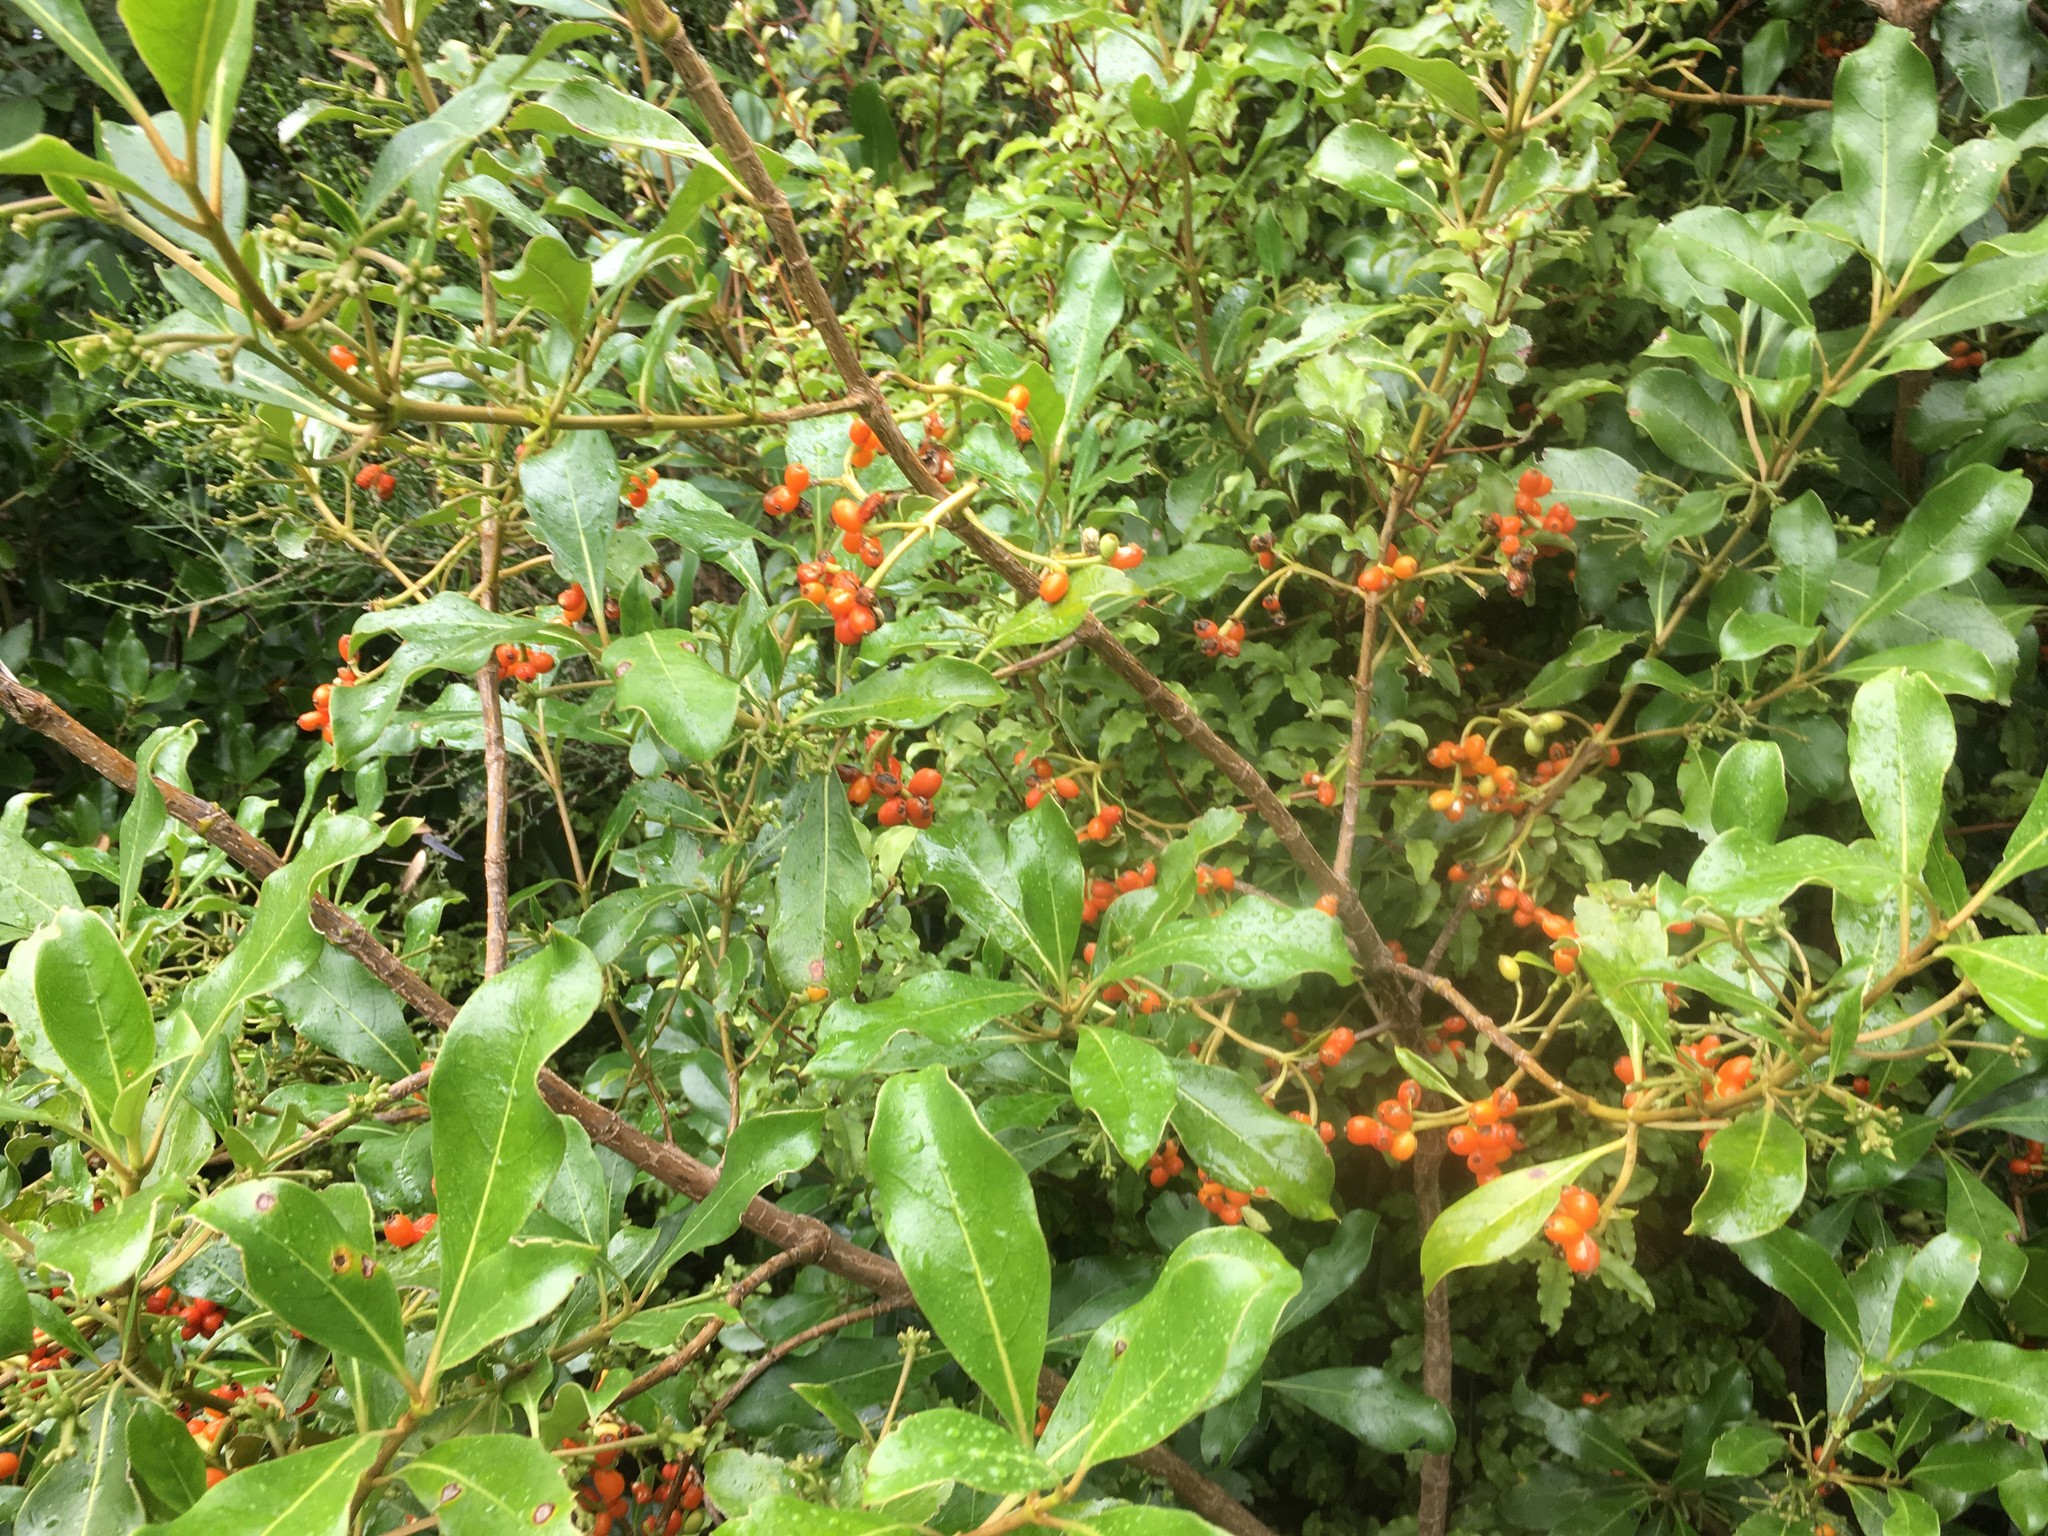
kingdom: Plantae
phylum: Tracheophyta
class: Magnoliopsida
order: Gentianales
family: Rubiaceae
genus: Coprosma
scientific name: Coprosma lucida
